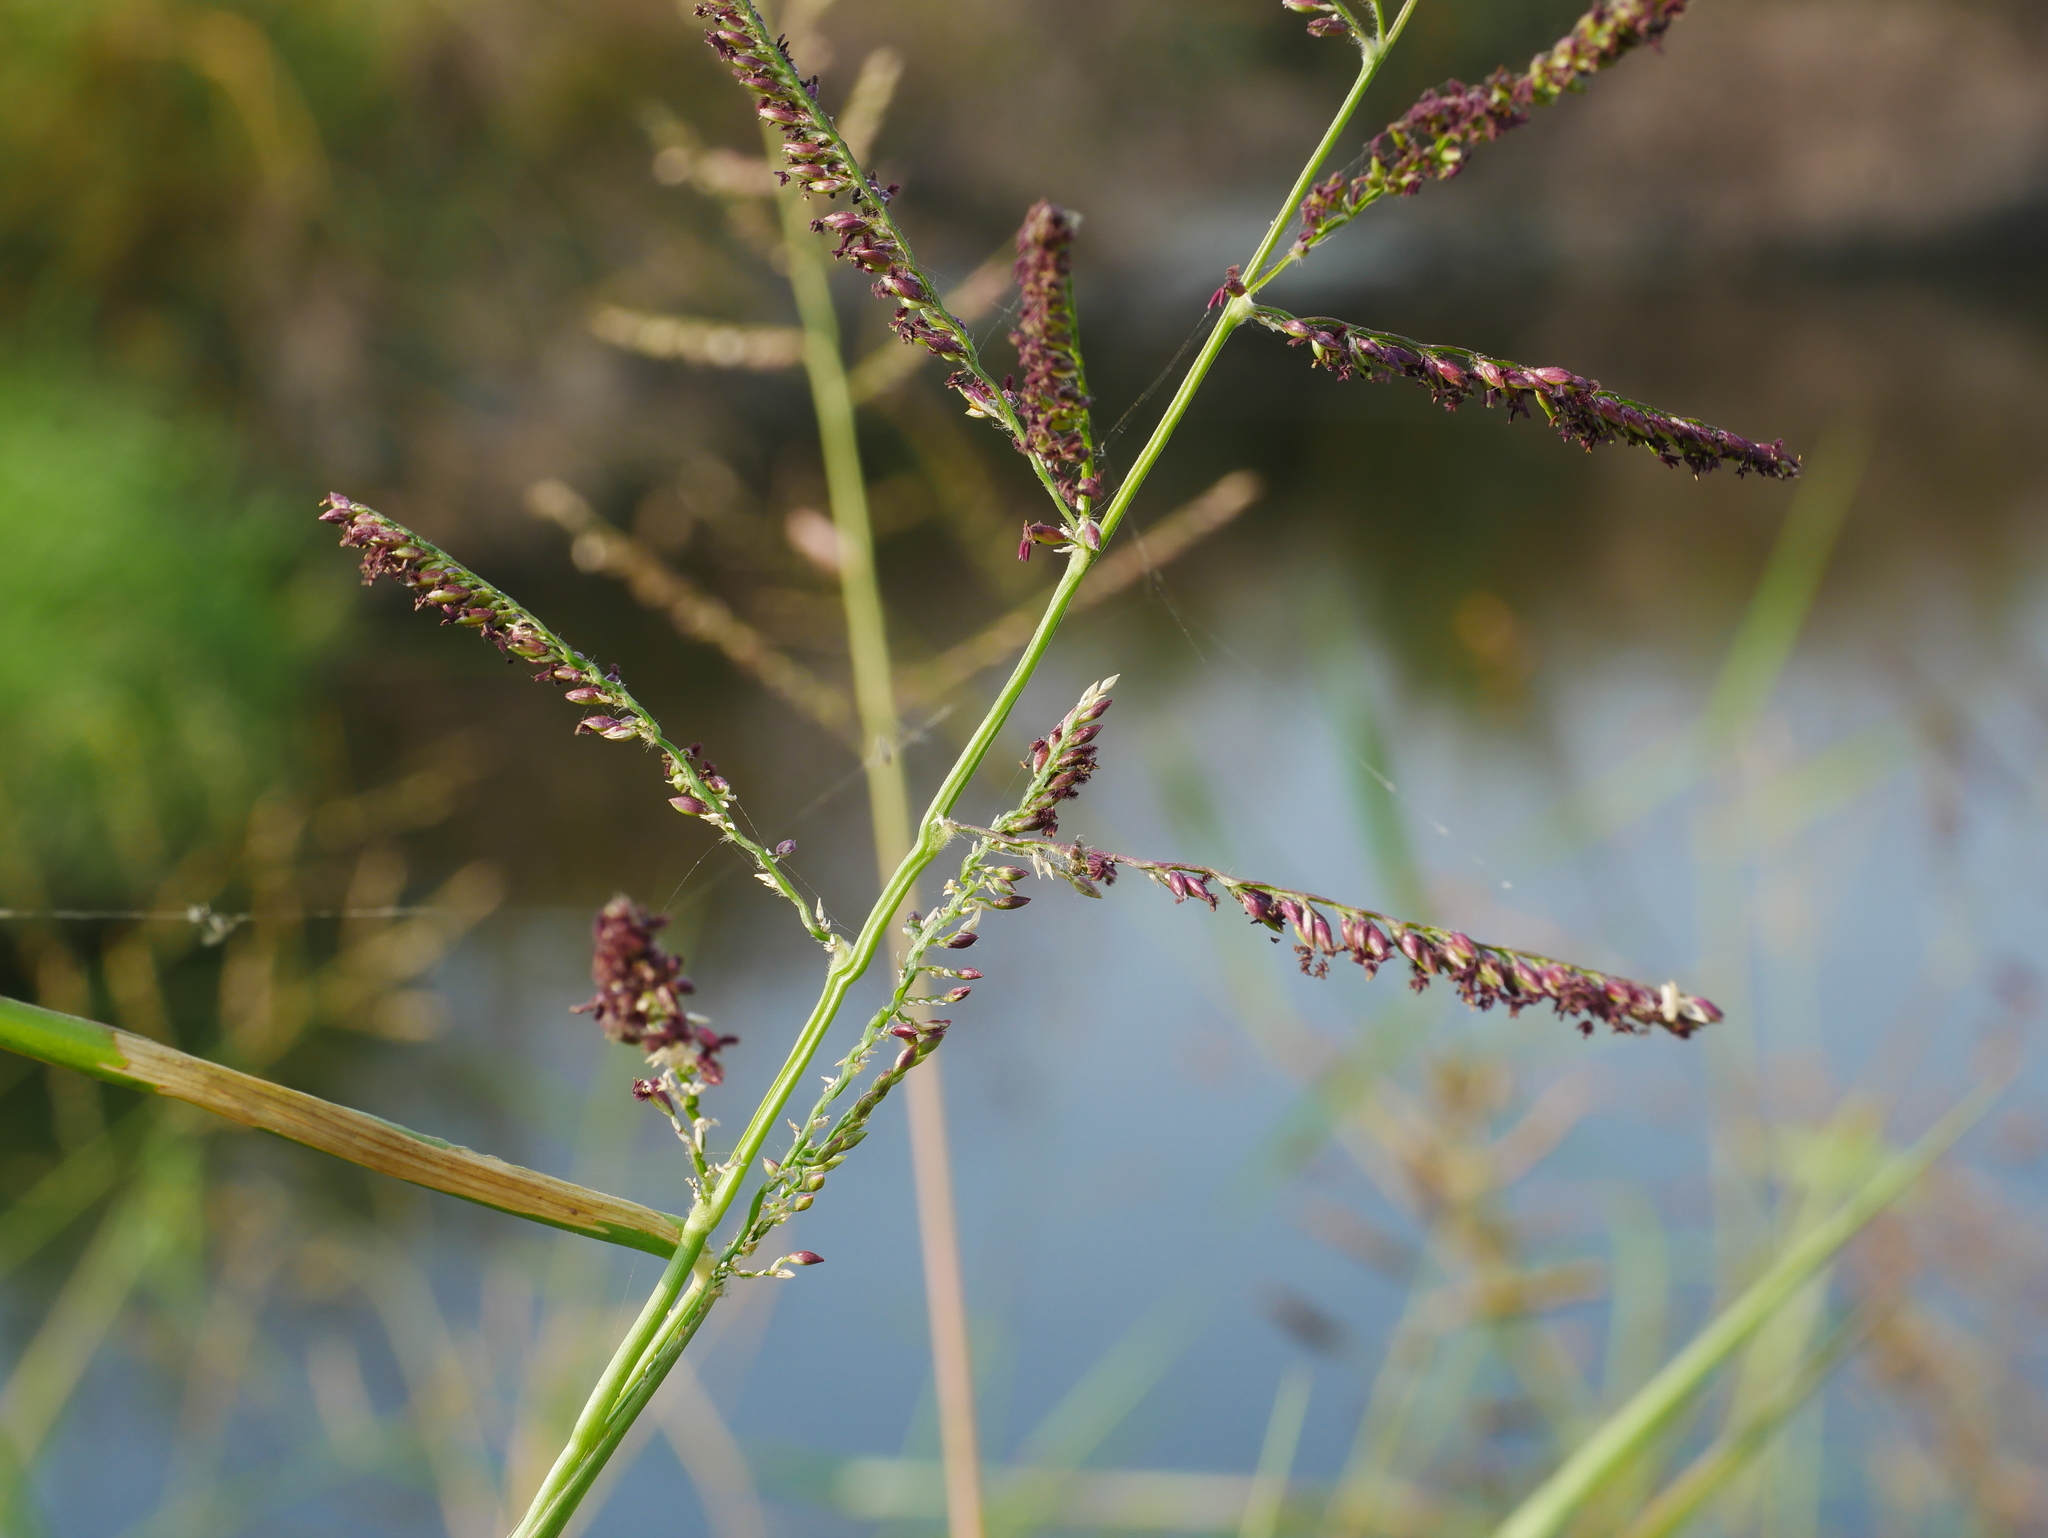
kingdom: Plantae
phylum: Tracheophyta
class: Liliopsida
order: Poales
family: Poaceae
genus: Urochloa
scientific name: Urochloa mutica
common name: Para grass
